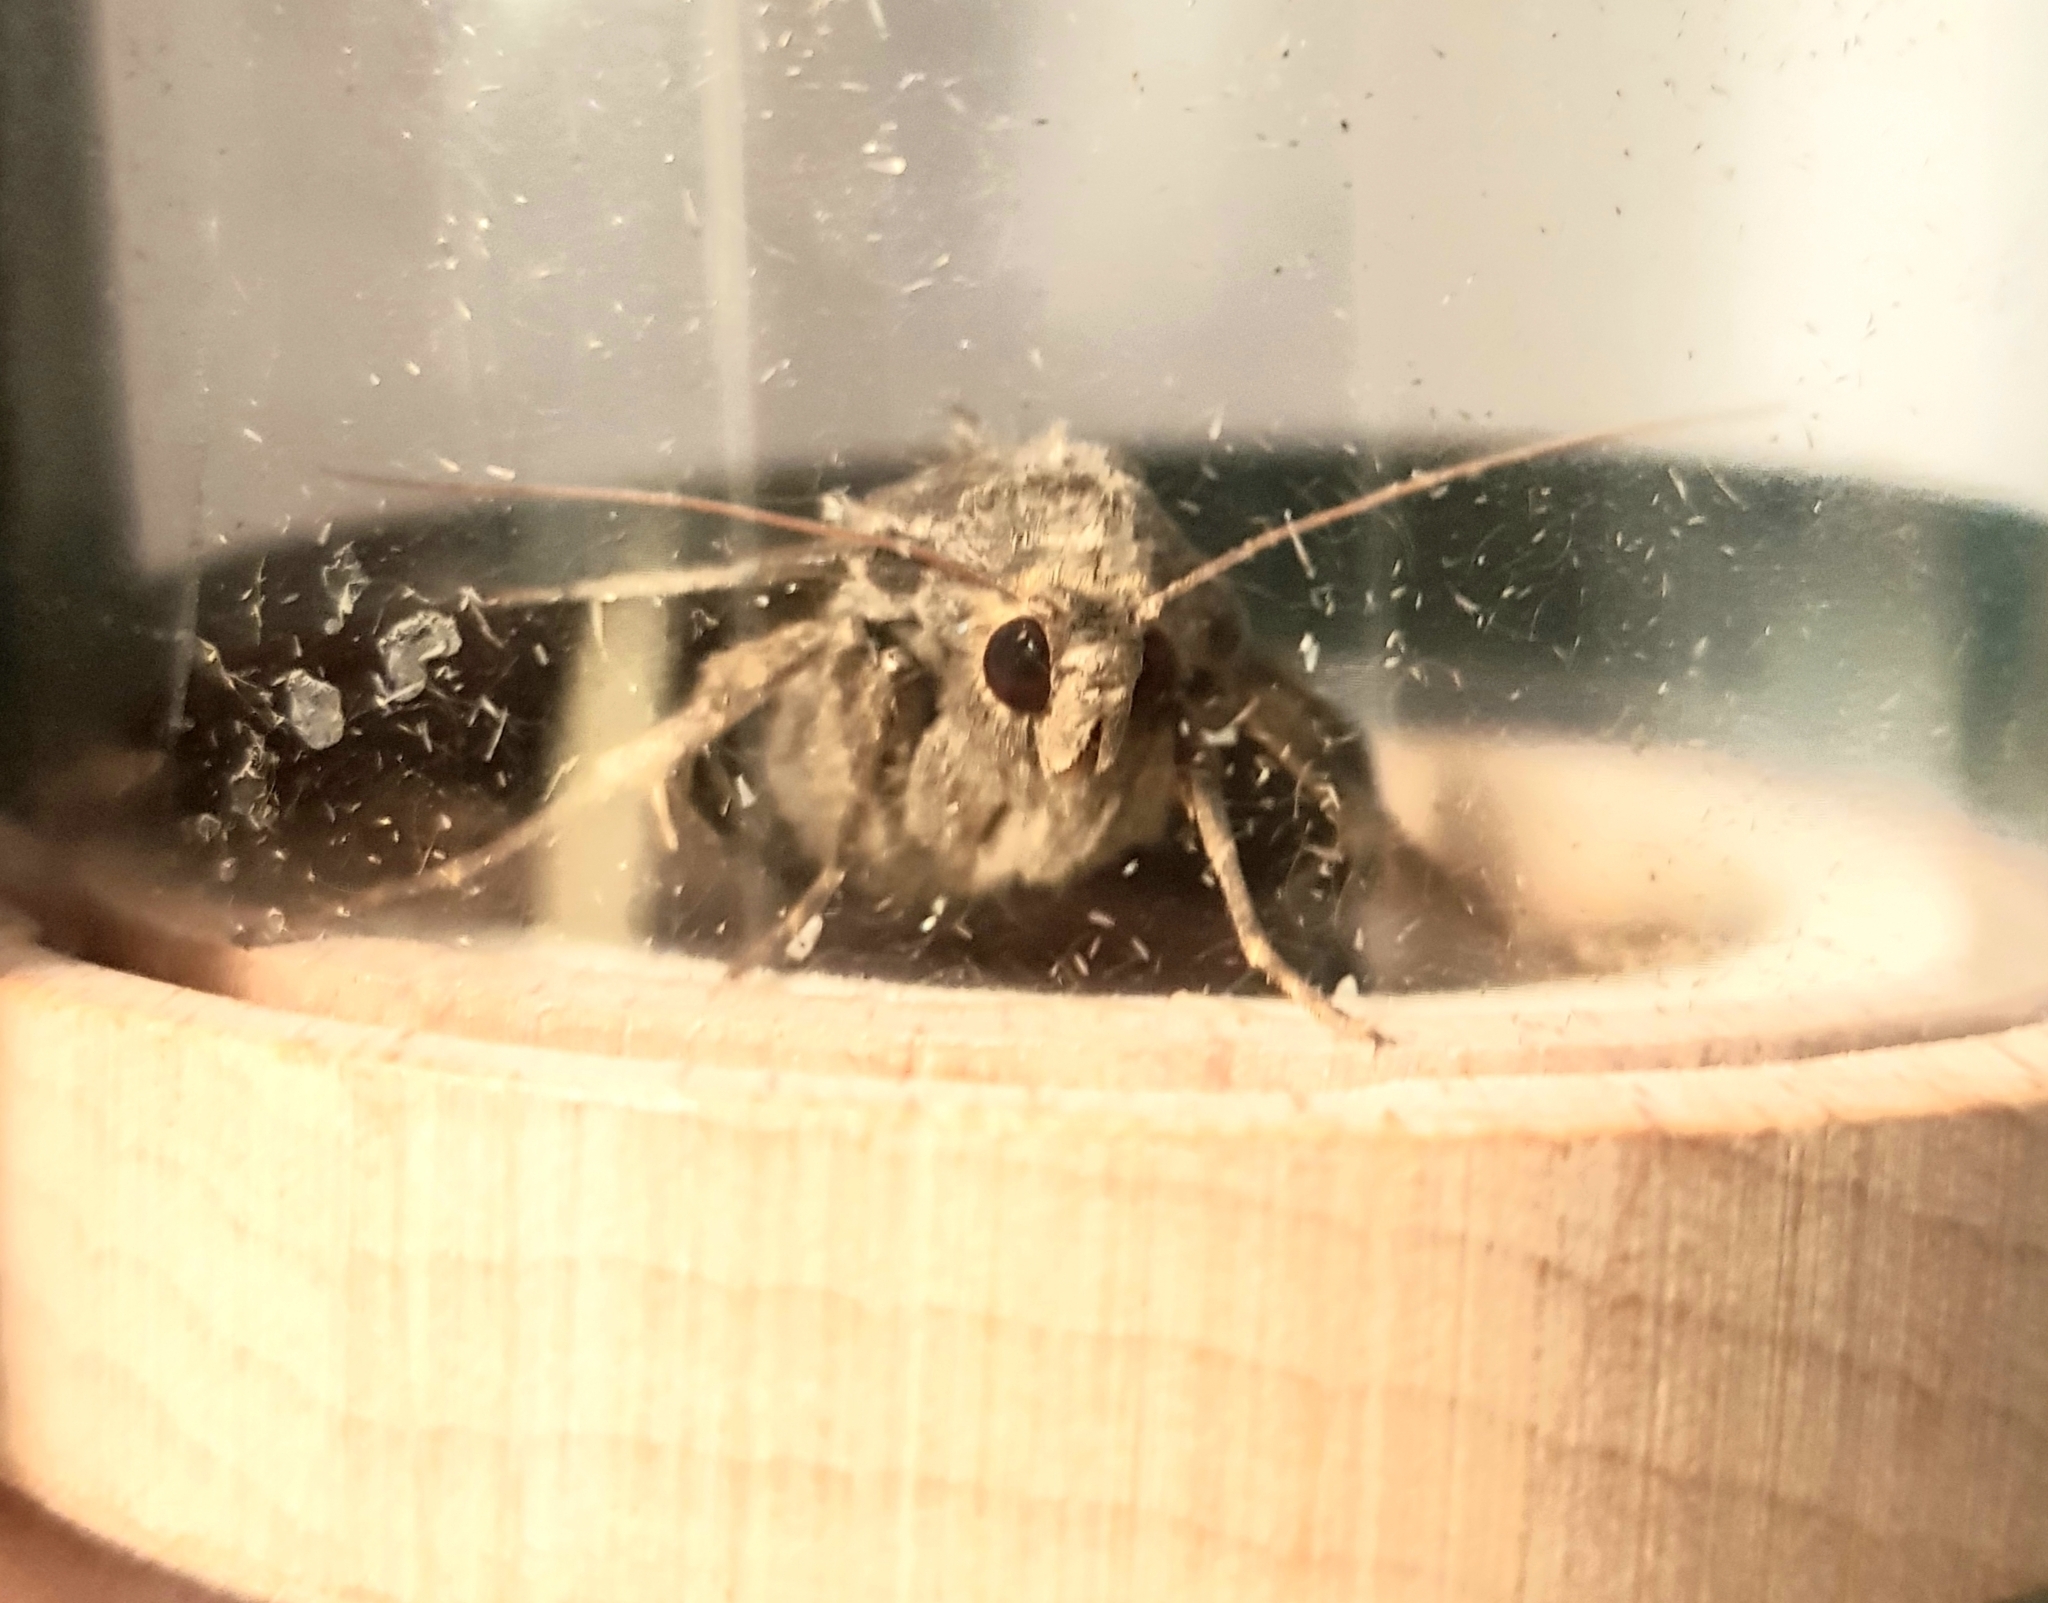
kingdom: Animalia
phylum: Arthropoda
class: Insecta
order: Lepidoptera
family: Noctuidae
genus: Mormo
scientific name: Mormo maura
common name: Old lady
